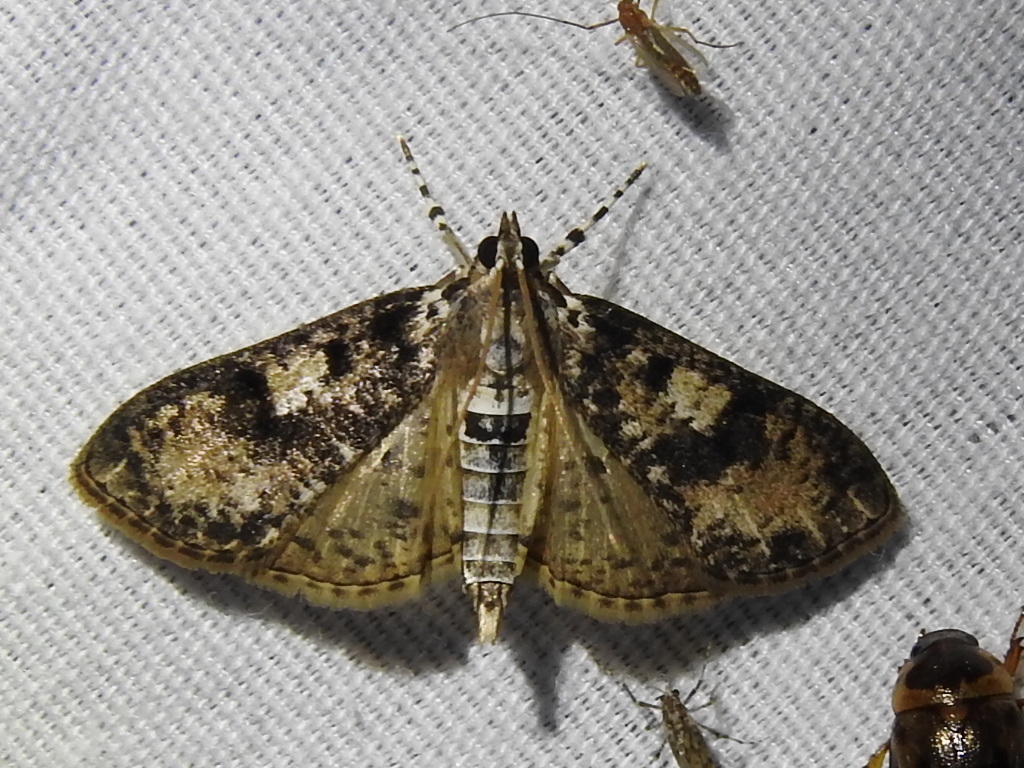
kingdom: Animalia
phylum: Arthropoda
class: Insecta
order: Lepidoptera
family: Crambidae
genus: Palpita
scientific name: Palpita magniferalis
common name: Splendid palpita moth
